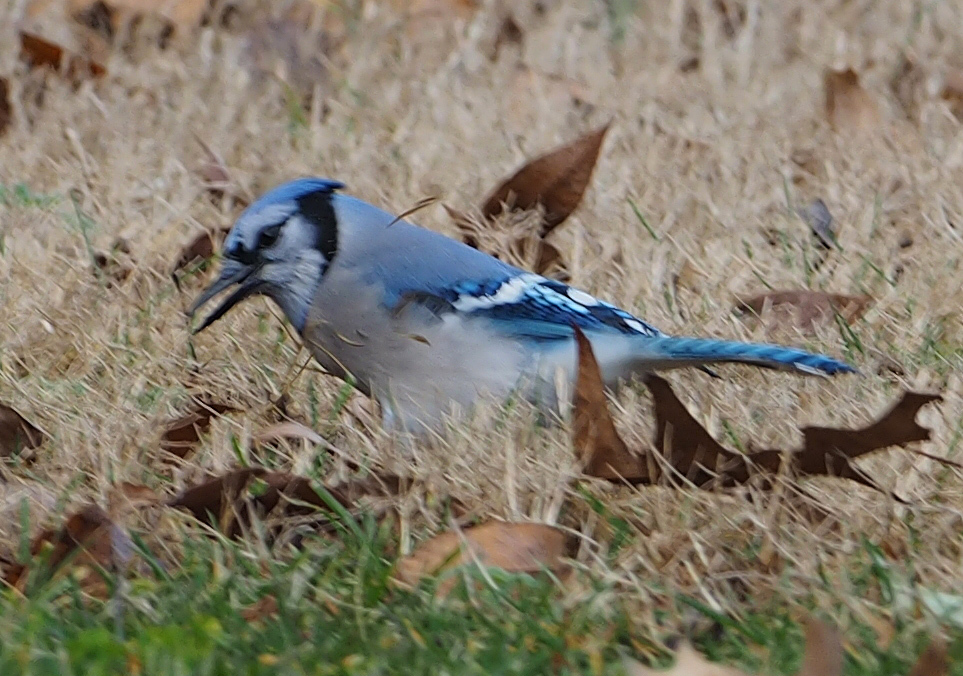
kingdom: Animalia
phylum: Chordata
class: Aves
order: Passeriformes
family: Corvidae
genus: Cyanocitta
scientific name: Cyanocitta cristata
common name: Blue jay
